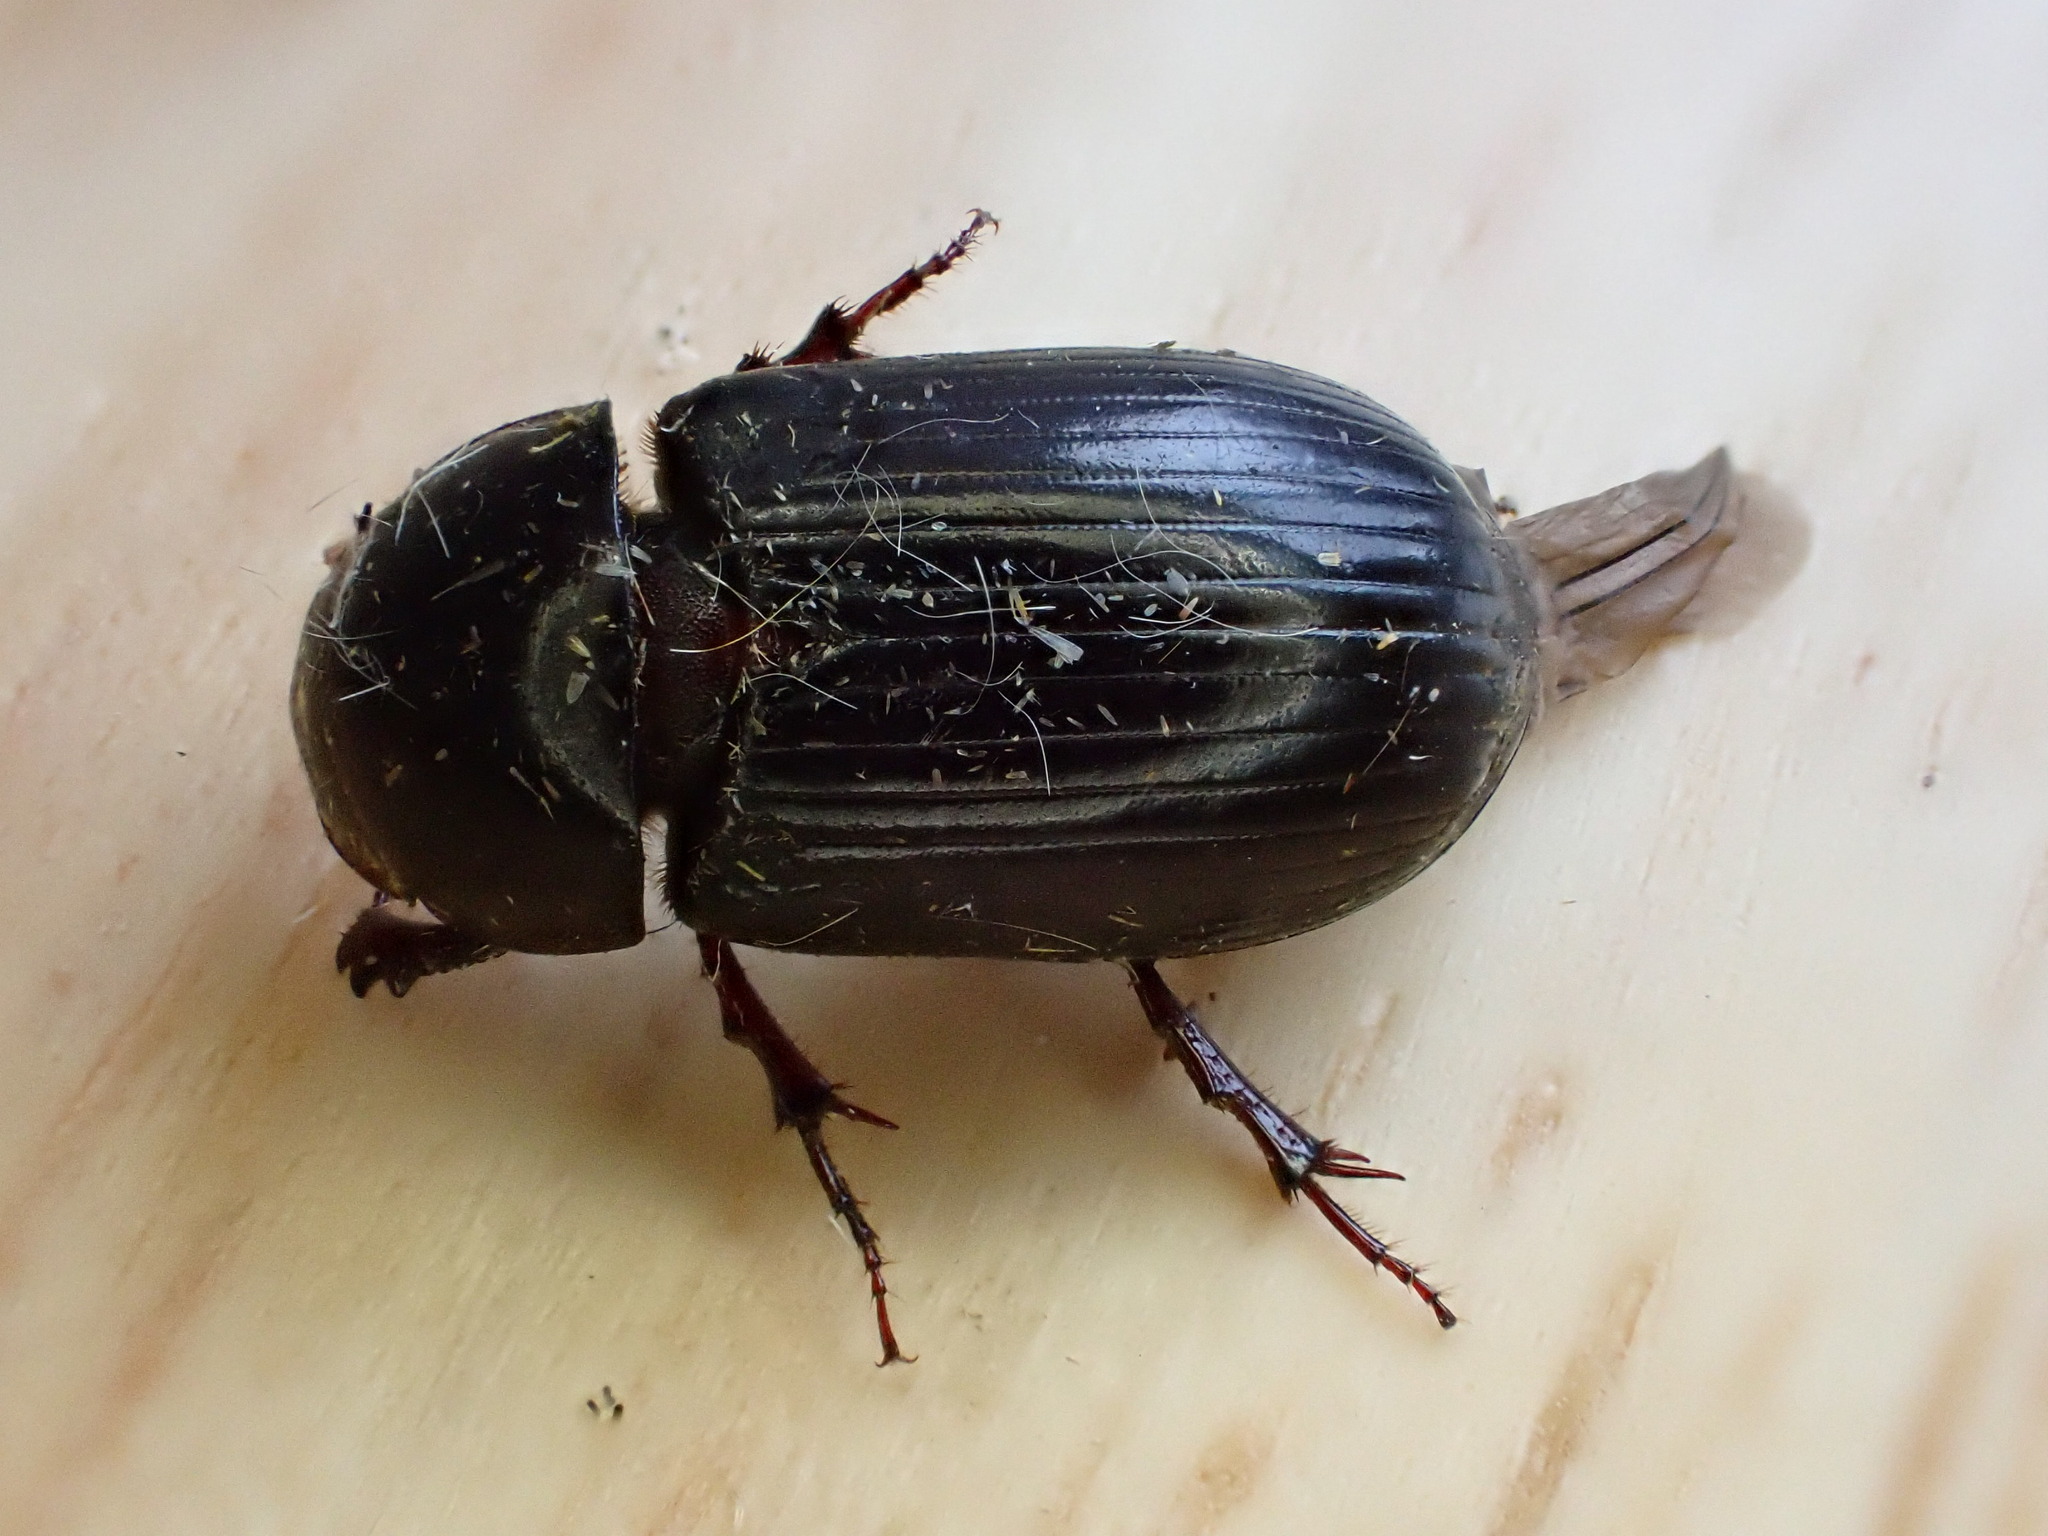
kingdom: Animalia
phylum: Arthropoda
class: Insecta
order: Coleoptera
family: Scarabaeidae
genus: Acrossus
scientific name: Acrossus rufipes
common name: Night-flying dung beetle
